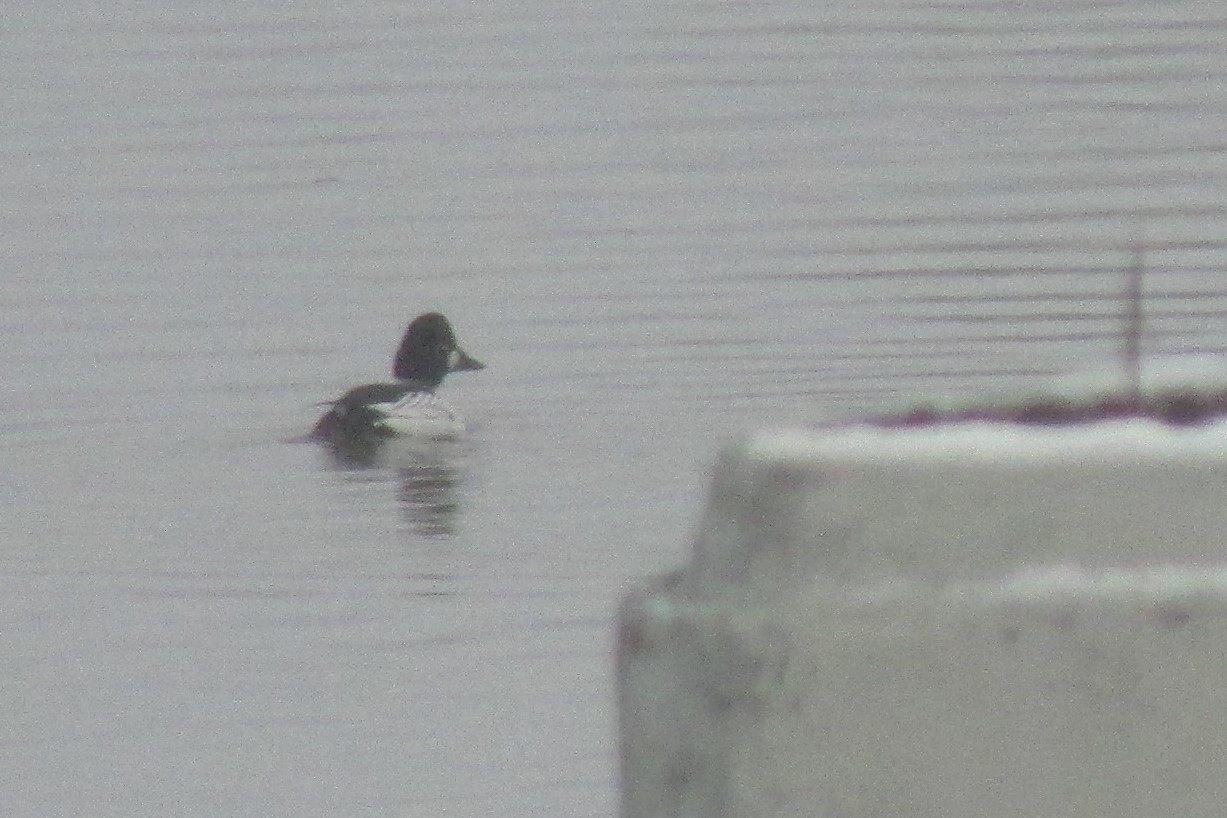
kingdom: Animalia
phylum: Chordata
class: Aves
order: Anseriformes
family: Anatidae
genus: Bucephala
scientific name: Bucephala clangula
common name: Common goldeneye
